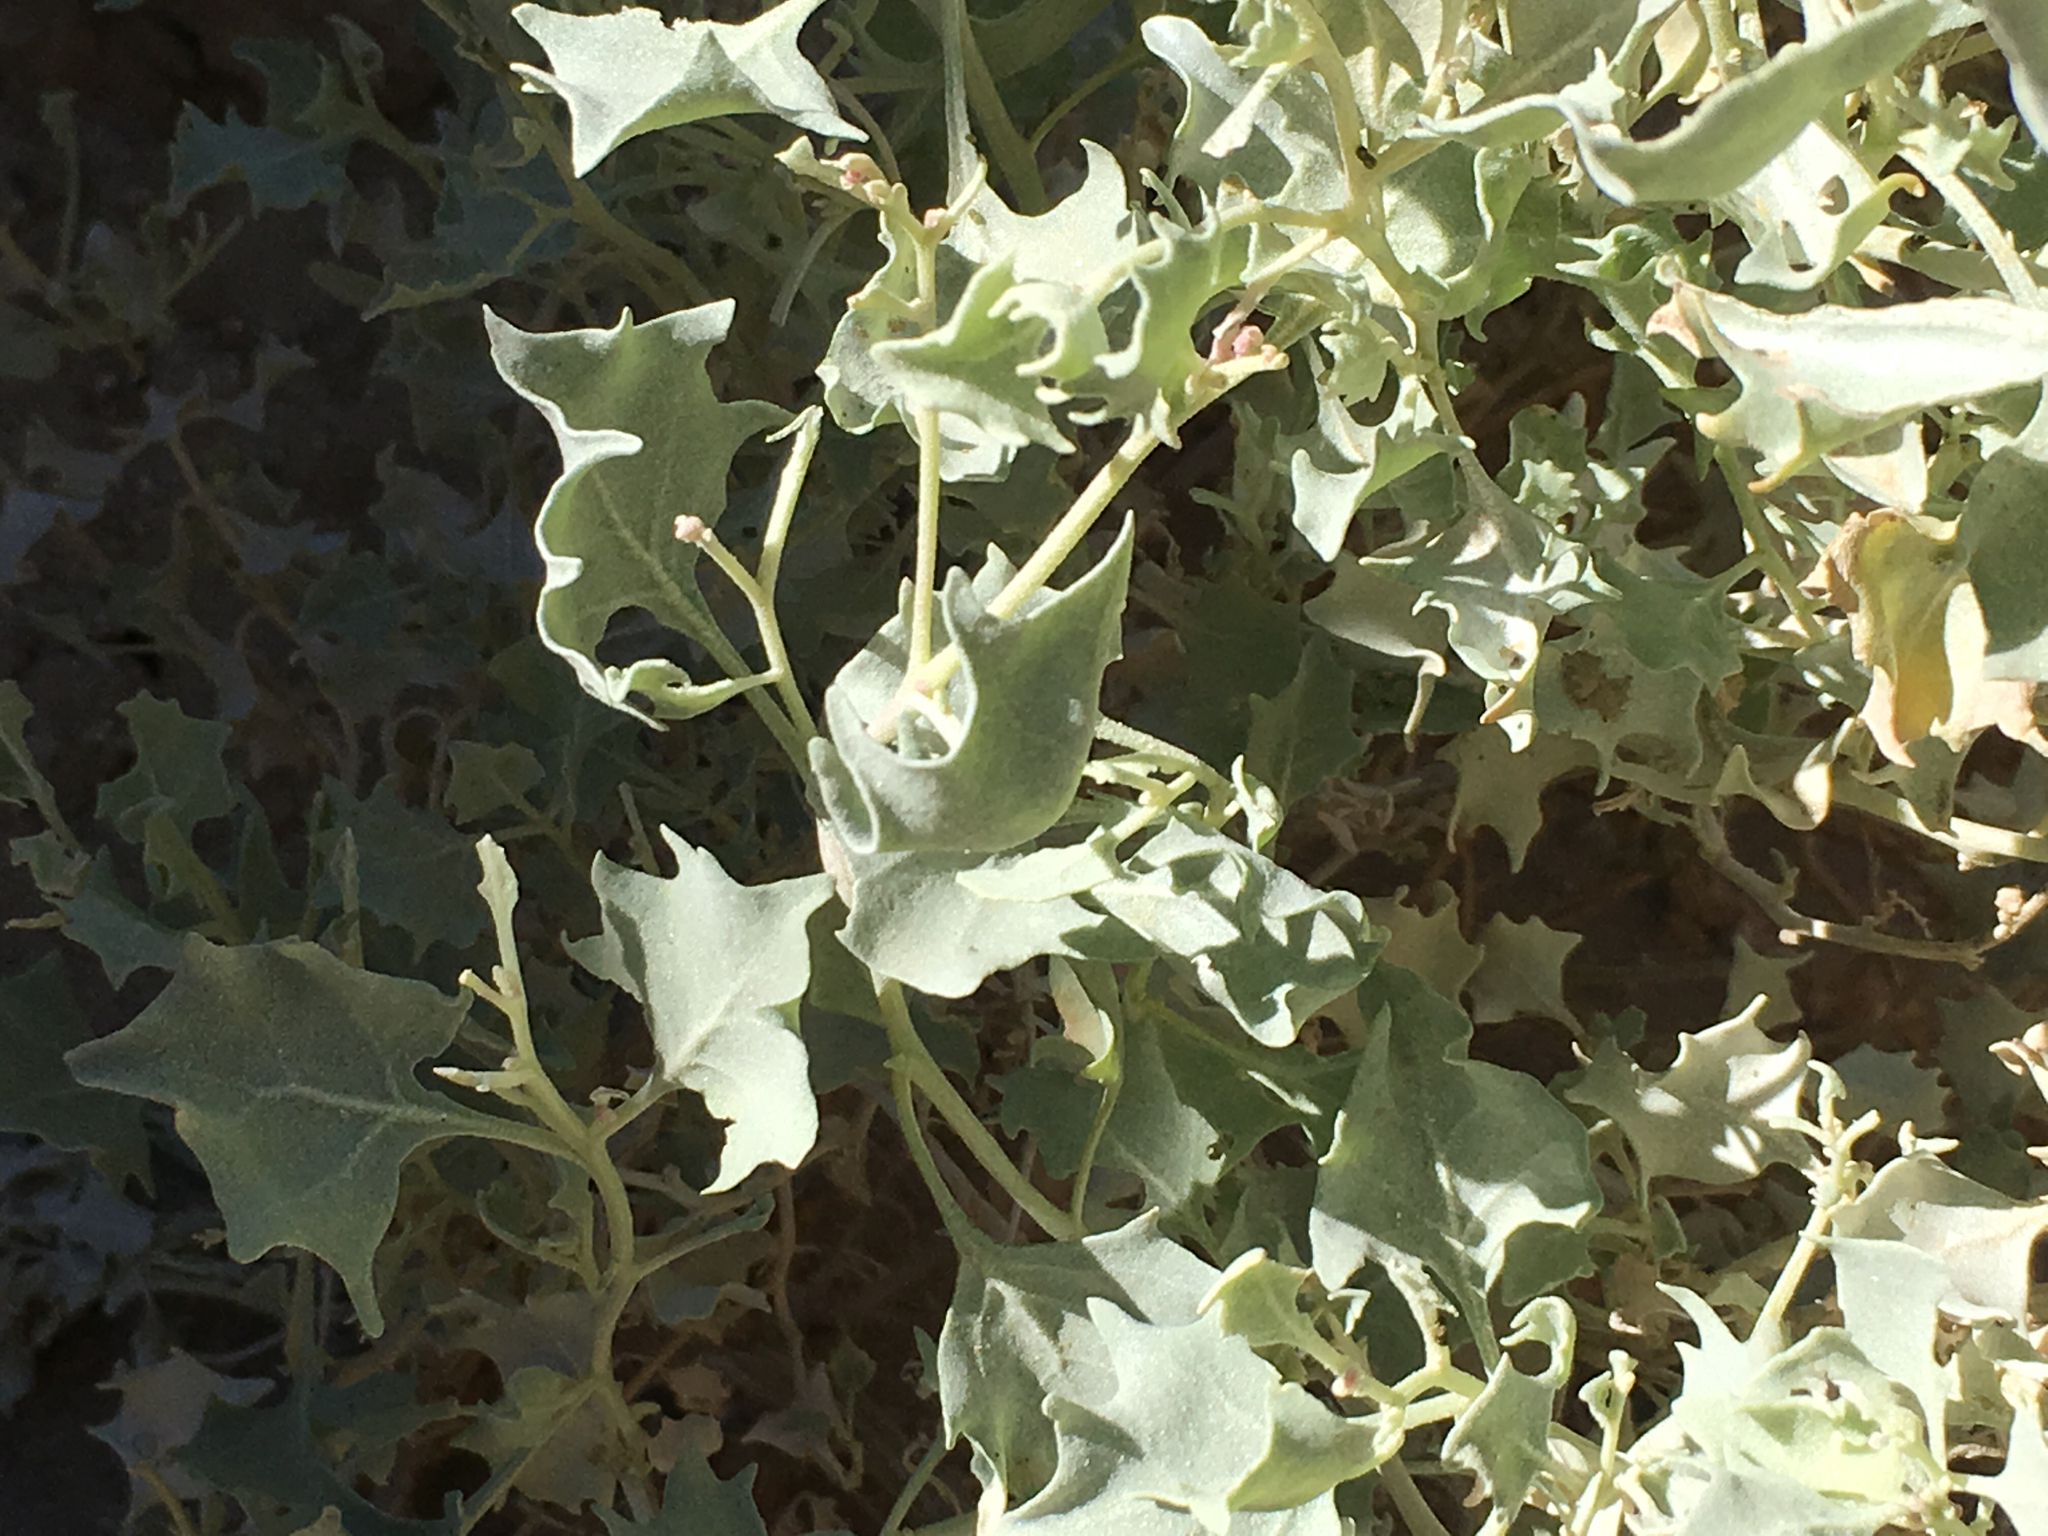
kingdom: Plantae
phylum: Tracheophyta
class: Magnoliopsida
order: Caryophyllales
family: Amaranthaceae
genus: Atriplex
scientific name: Atriplex hymenelytra
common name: Desert-holly
